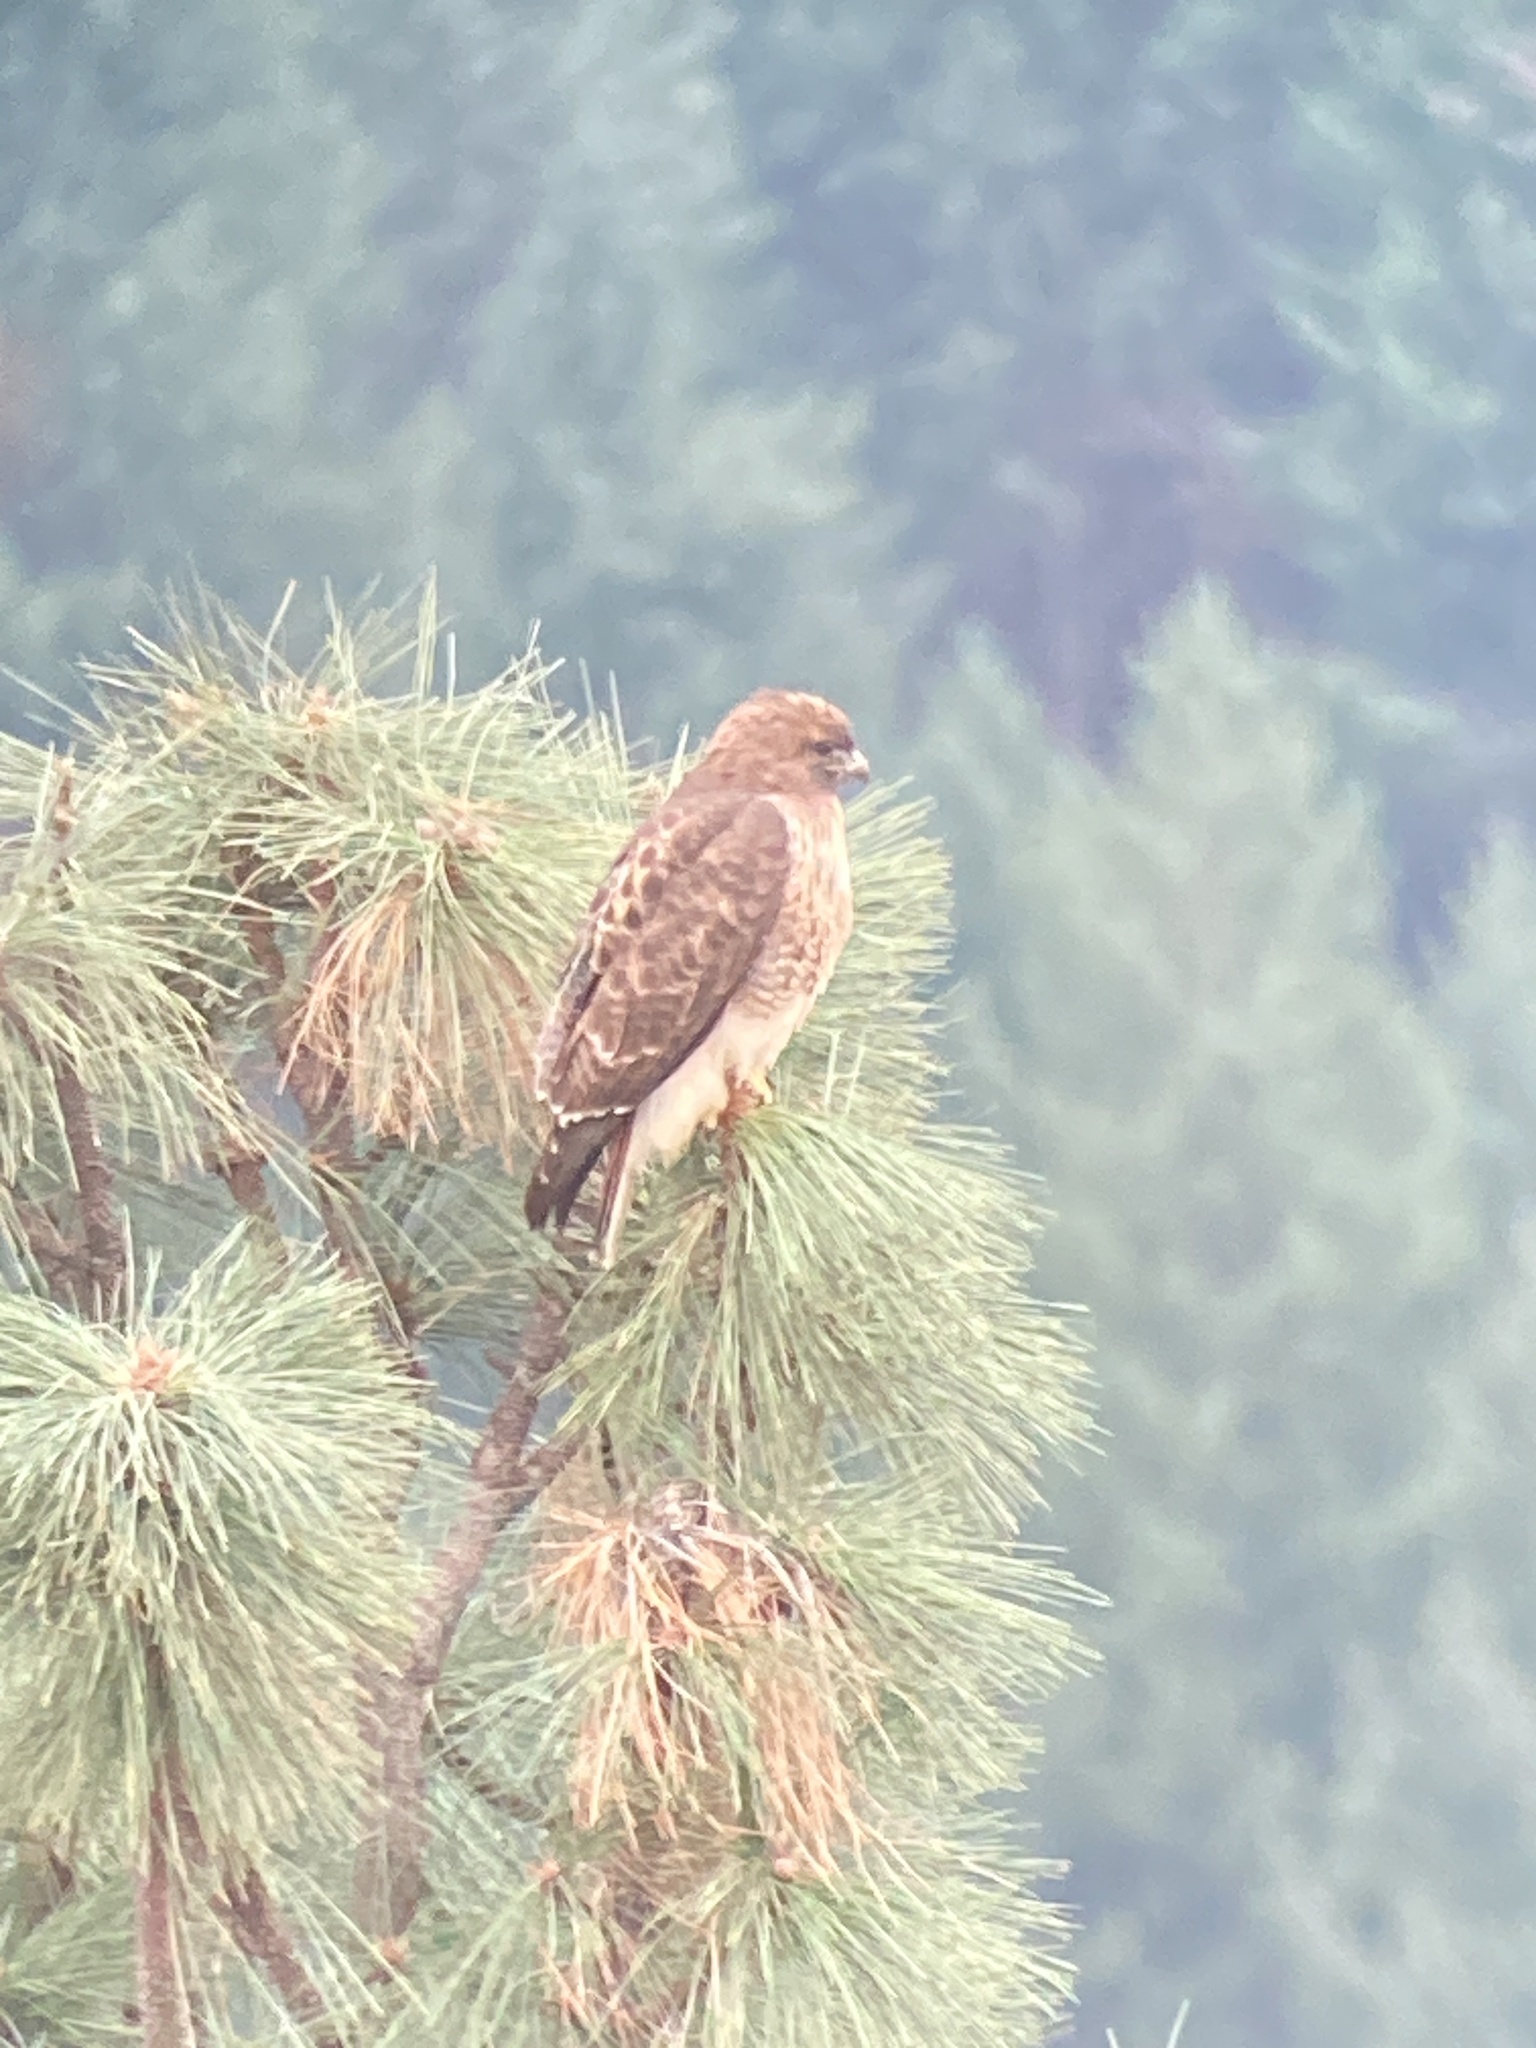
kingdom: Animalia
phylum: Chordata
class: Aves
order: Accipitriformes
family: Accipitridae
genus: Buteo
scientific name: Buteo jamaicensis
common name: Red-tailed hawk
